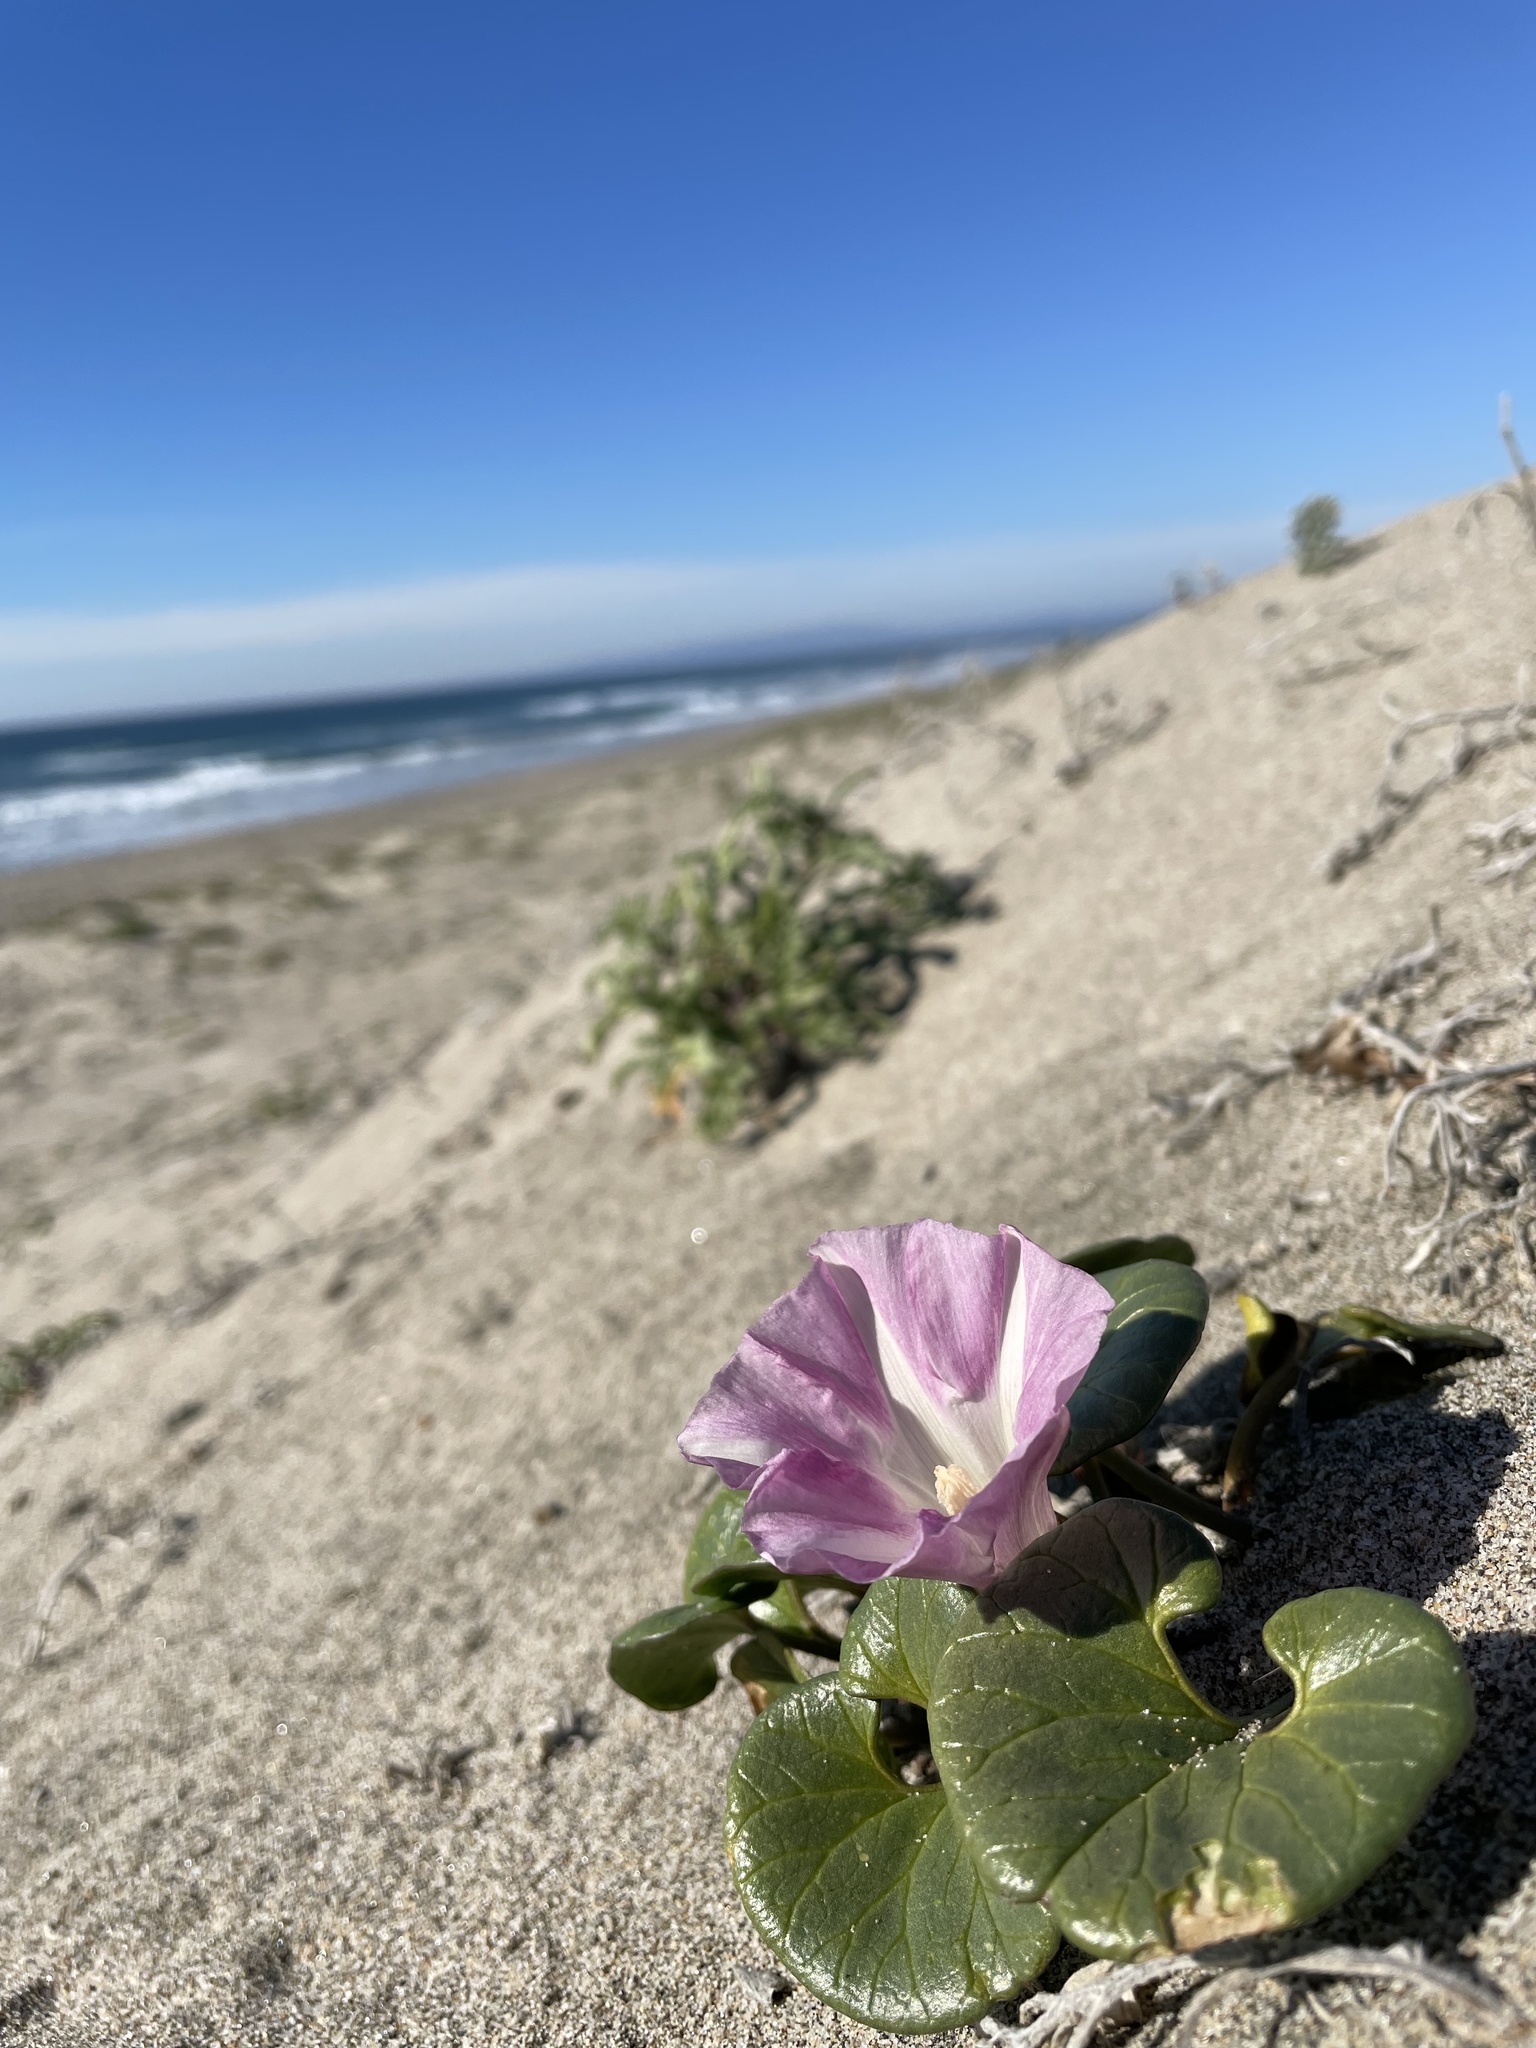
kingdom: Plantae
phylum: Tracheophyta
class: Magnoliopsida
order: Solanales
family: Convolvulaceae
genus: Calystegia
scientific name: Calystegia soldanella
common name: Sea bindweed
